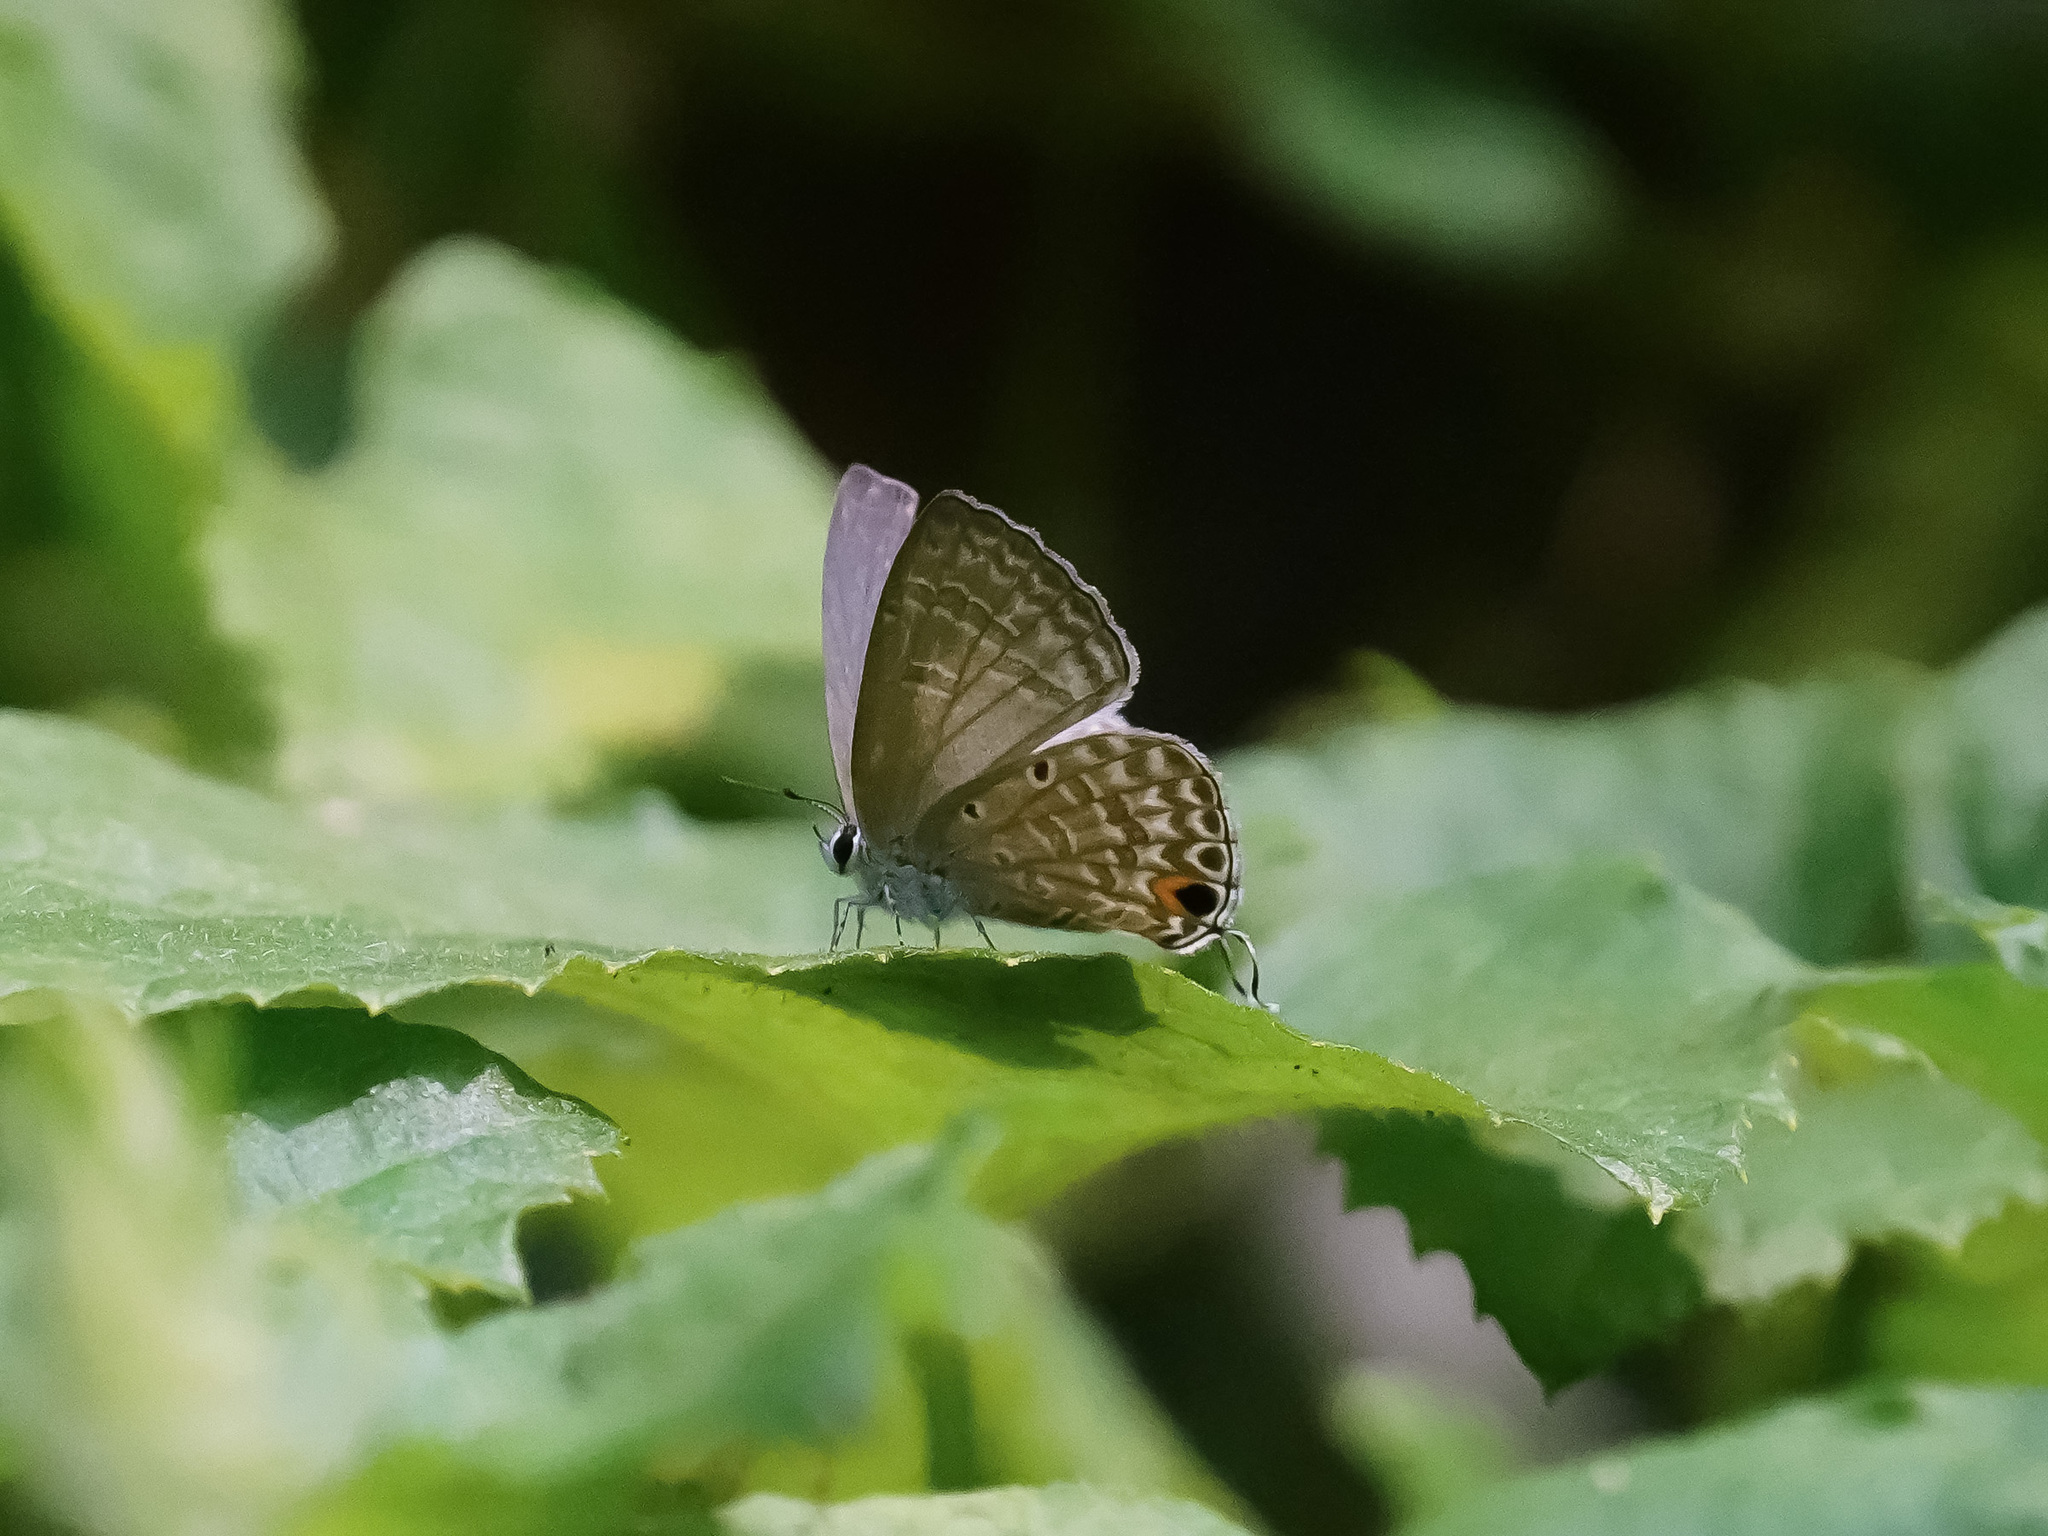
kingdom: Animalia
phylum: Arthropoda
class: Insecta
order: Lepidoptera
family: Lycaenidae
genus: Luthrodes
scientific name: Luthrodes pandava
